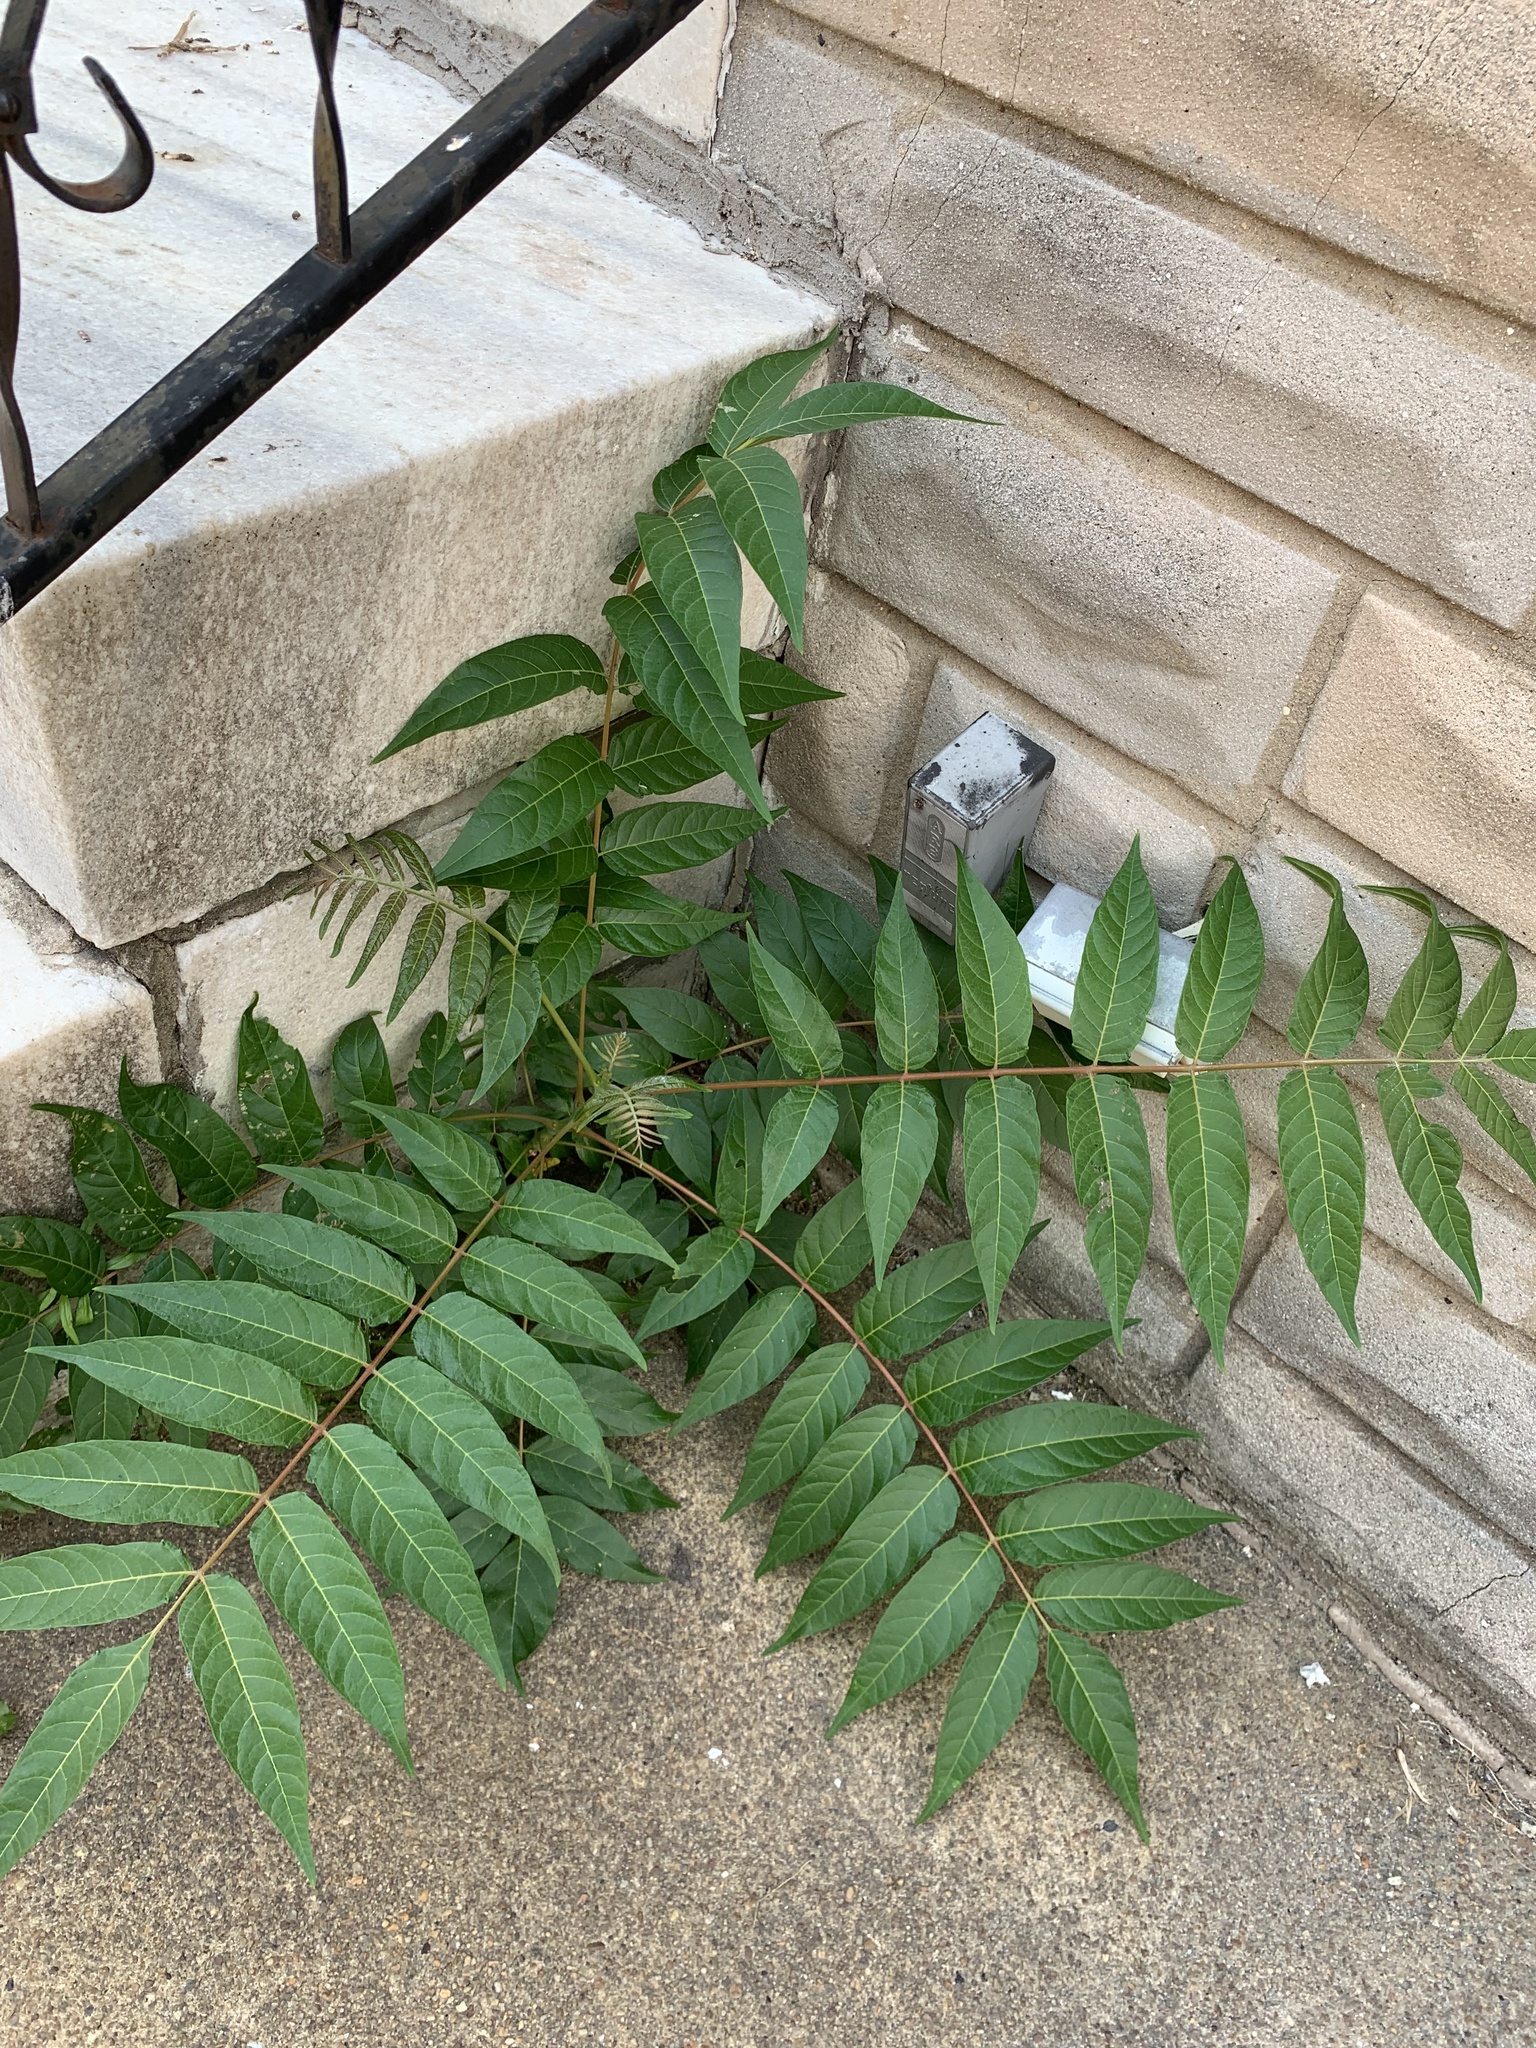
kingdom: Plantae
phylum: Tracheophyta
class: Magnoliopsida
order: Sapindales
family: Simaroubaceae
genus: Ailanthus
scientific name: Ailanthus altissima
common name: Tree-of-heaven
